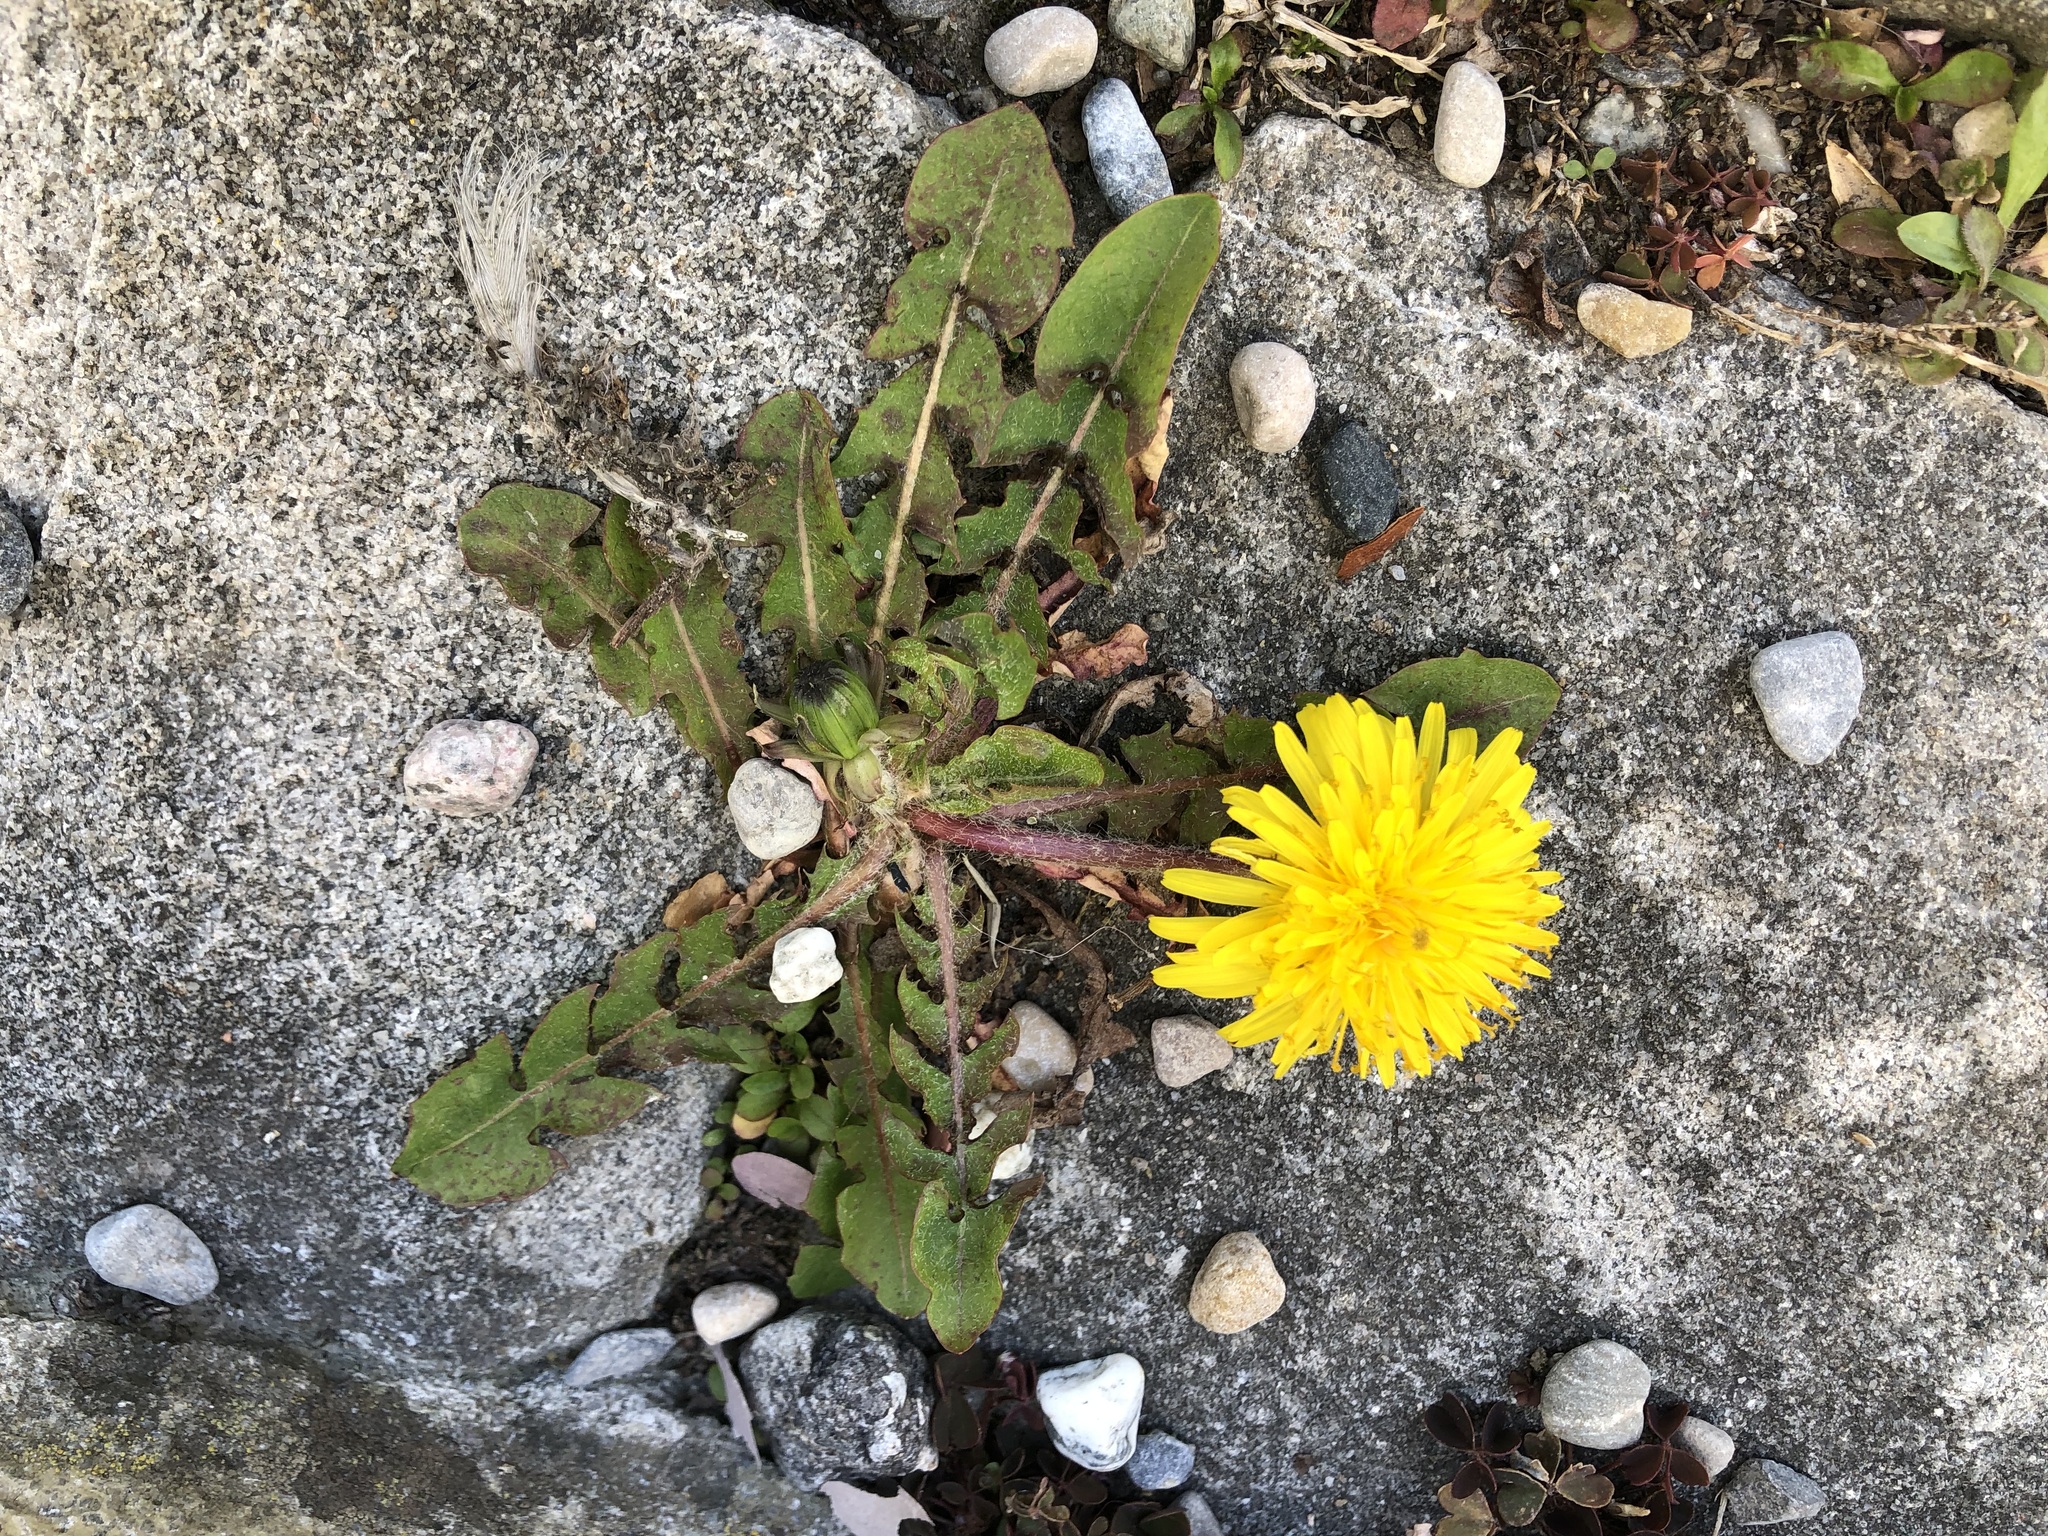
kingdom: Plantae
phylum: Tracheophyta
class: Magnoliopsida
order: Asterales
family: Asteraceae
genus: Taraxacum
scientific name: Taraxacum officinale
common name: Common dandelion
